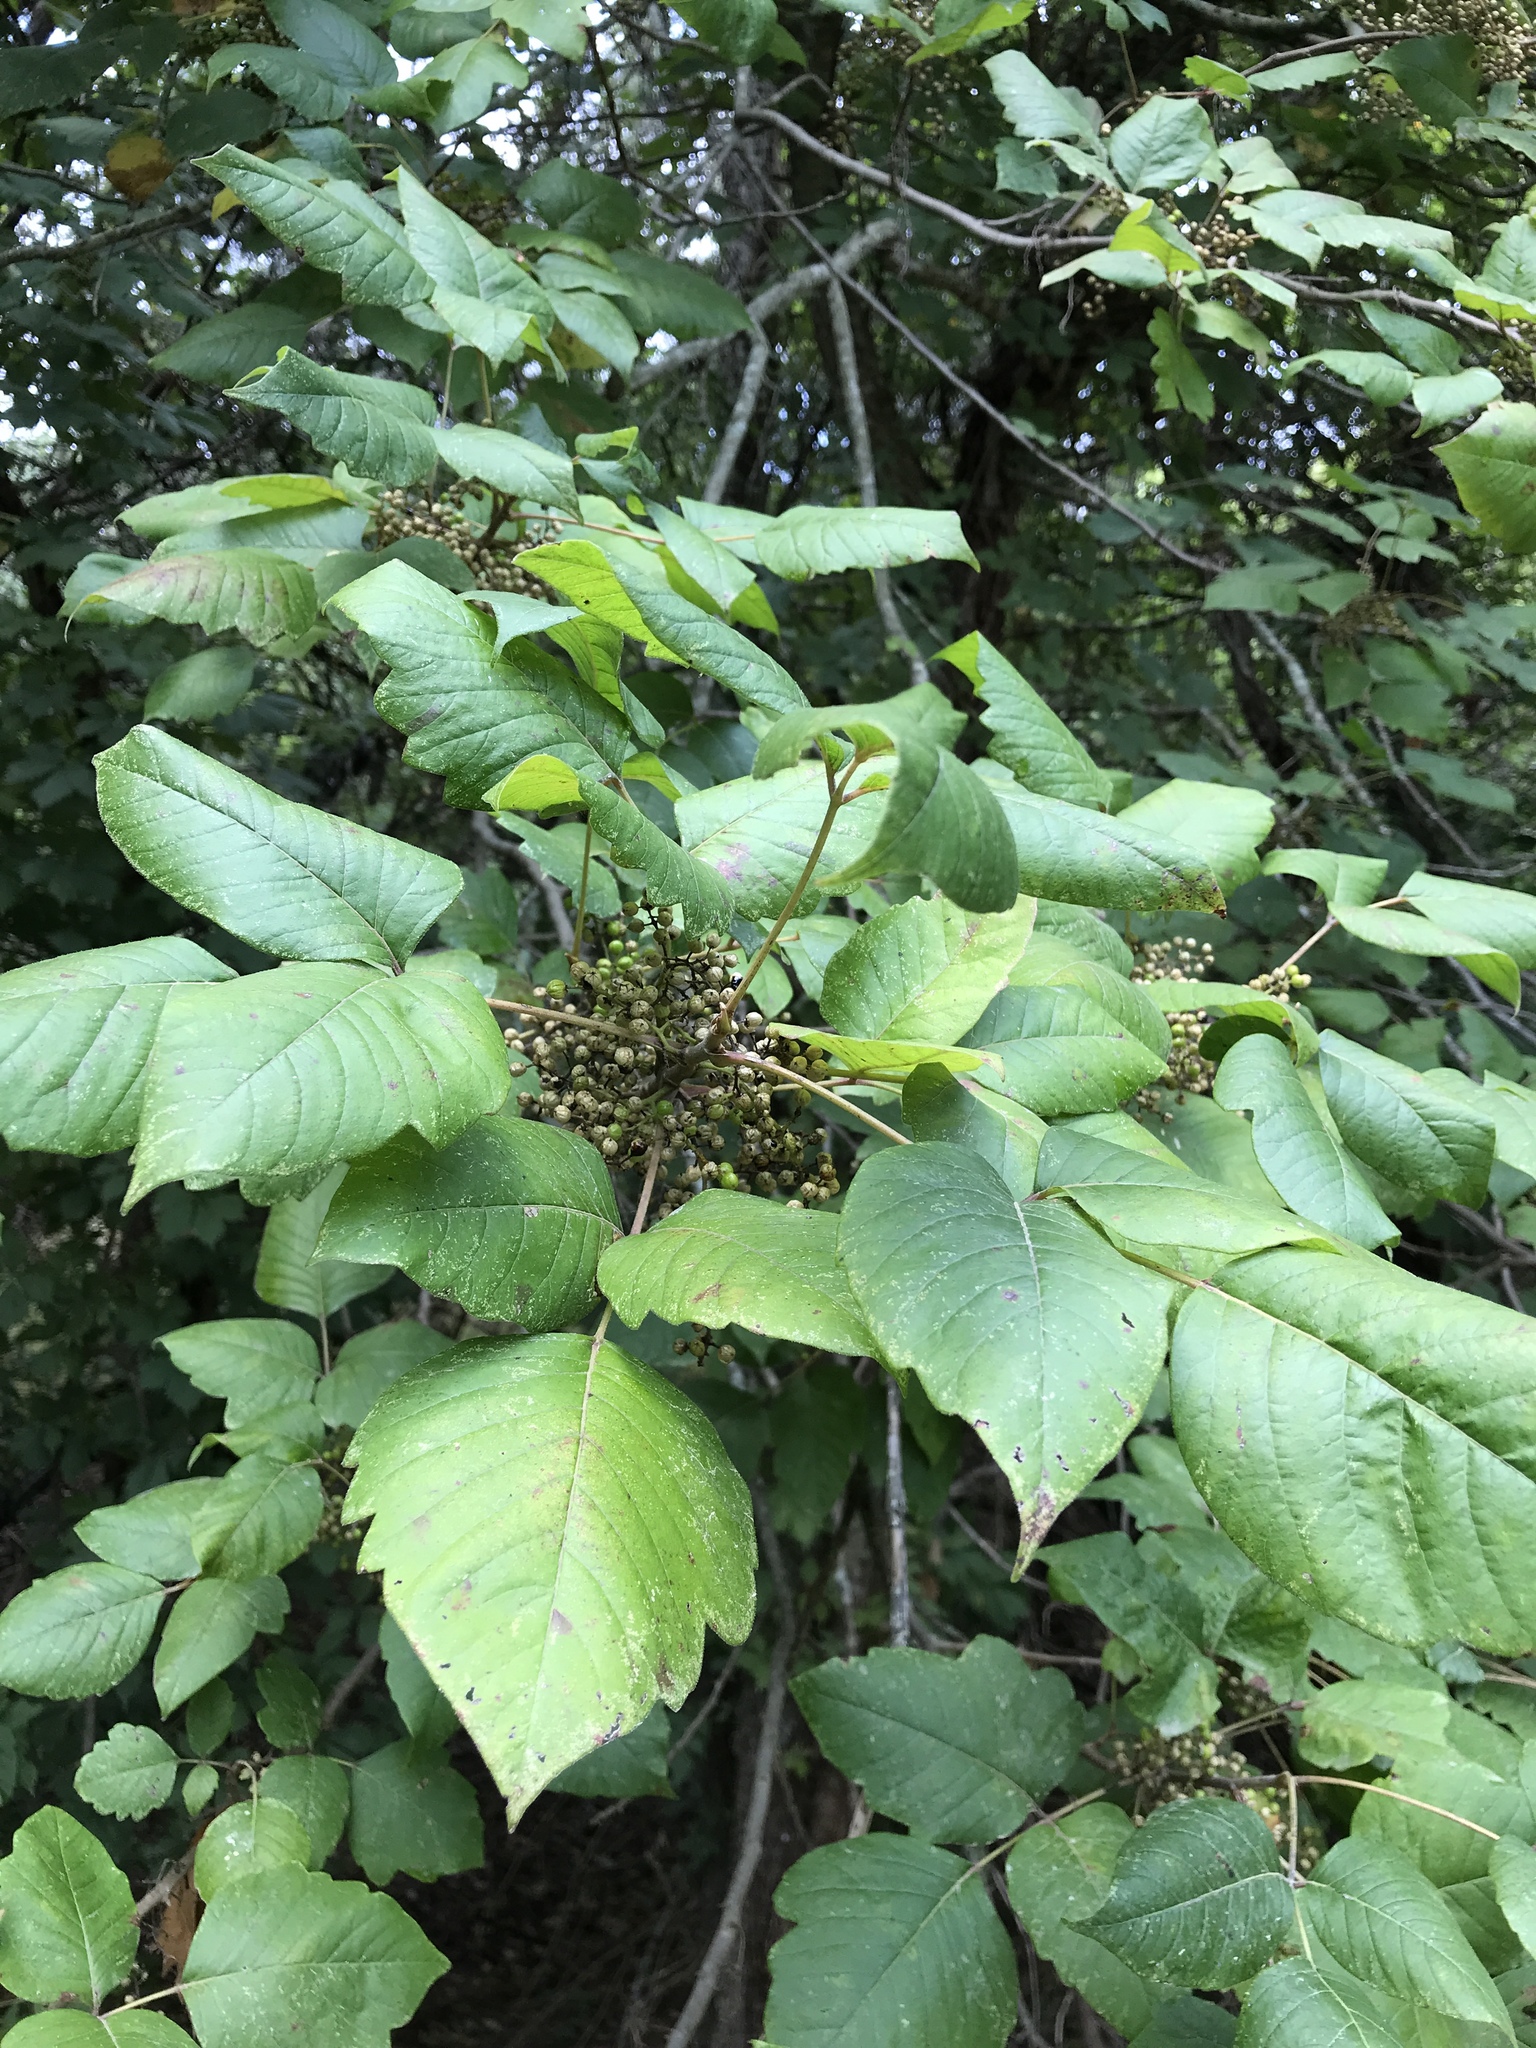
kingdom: Plantae
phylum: Tracheophyta
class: Magnoliopsida
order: Sapindales
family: Anacardiaceae
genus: Toxicodendron
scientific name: Toxicodendron radicans
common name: Poison ivy
